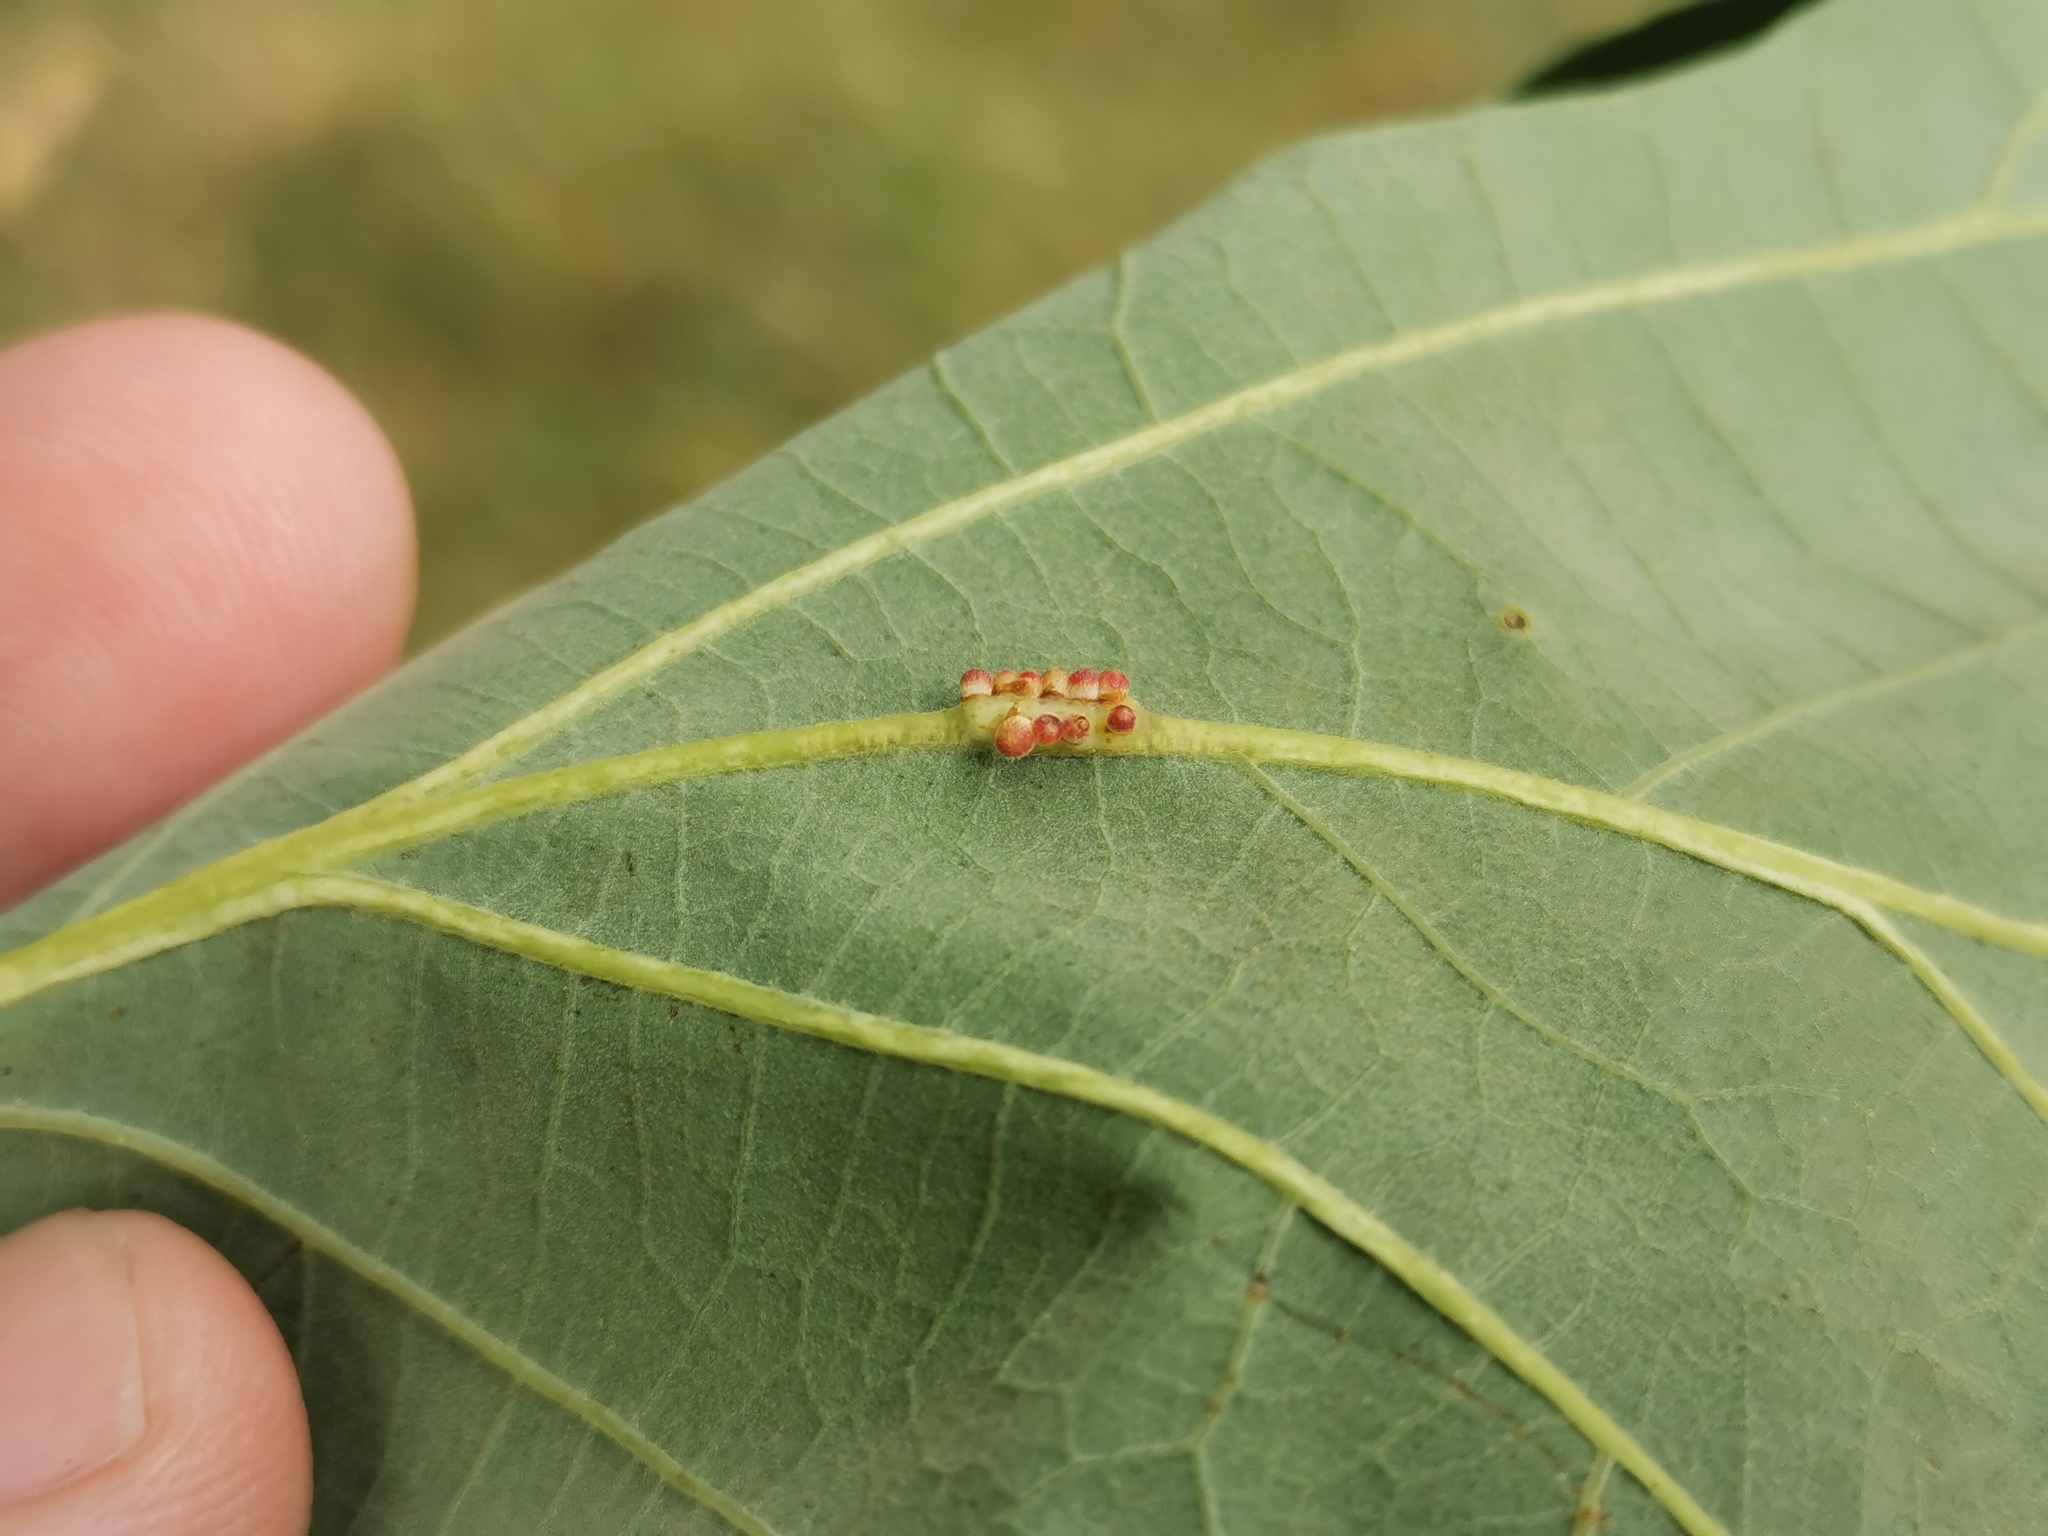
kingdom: Animalia
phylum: Arthropoda
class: Insecta
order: Hymenoptera
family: Cynipidae
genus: Andricus
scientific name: Andricus
